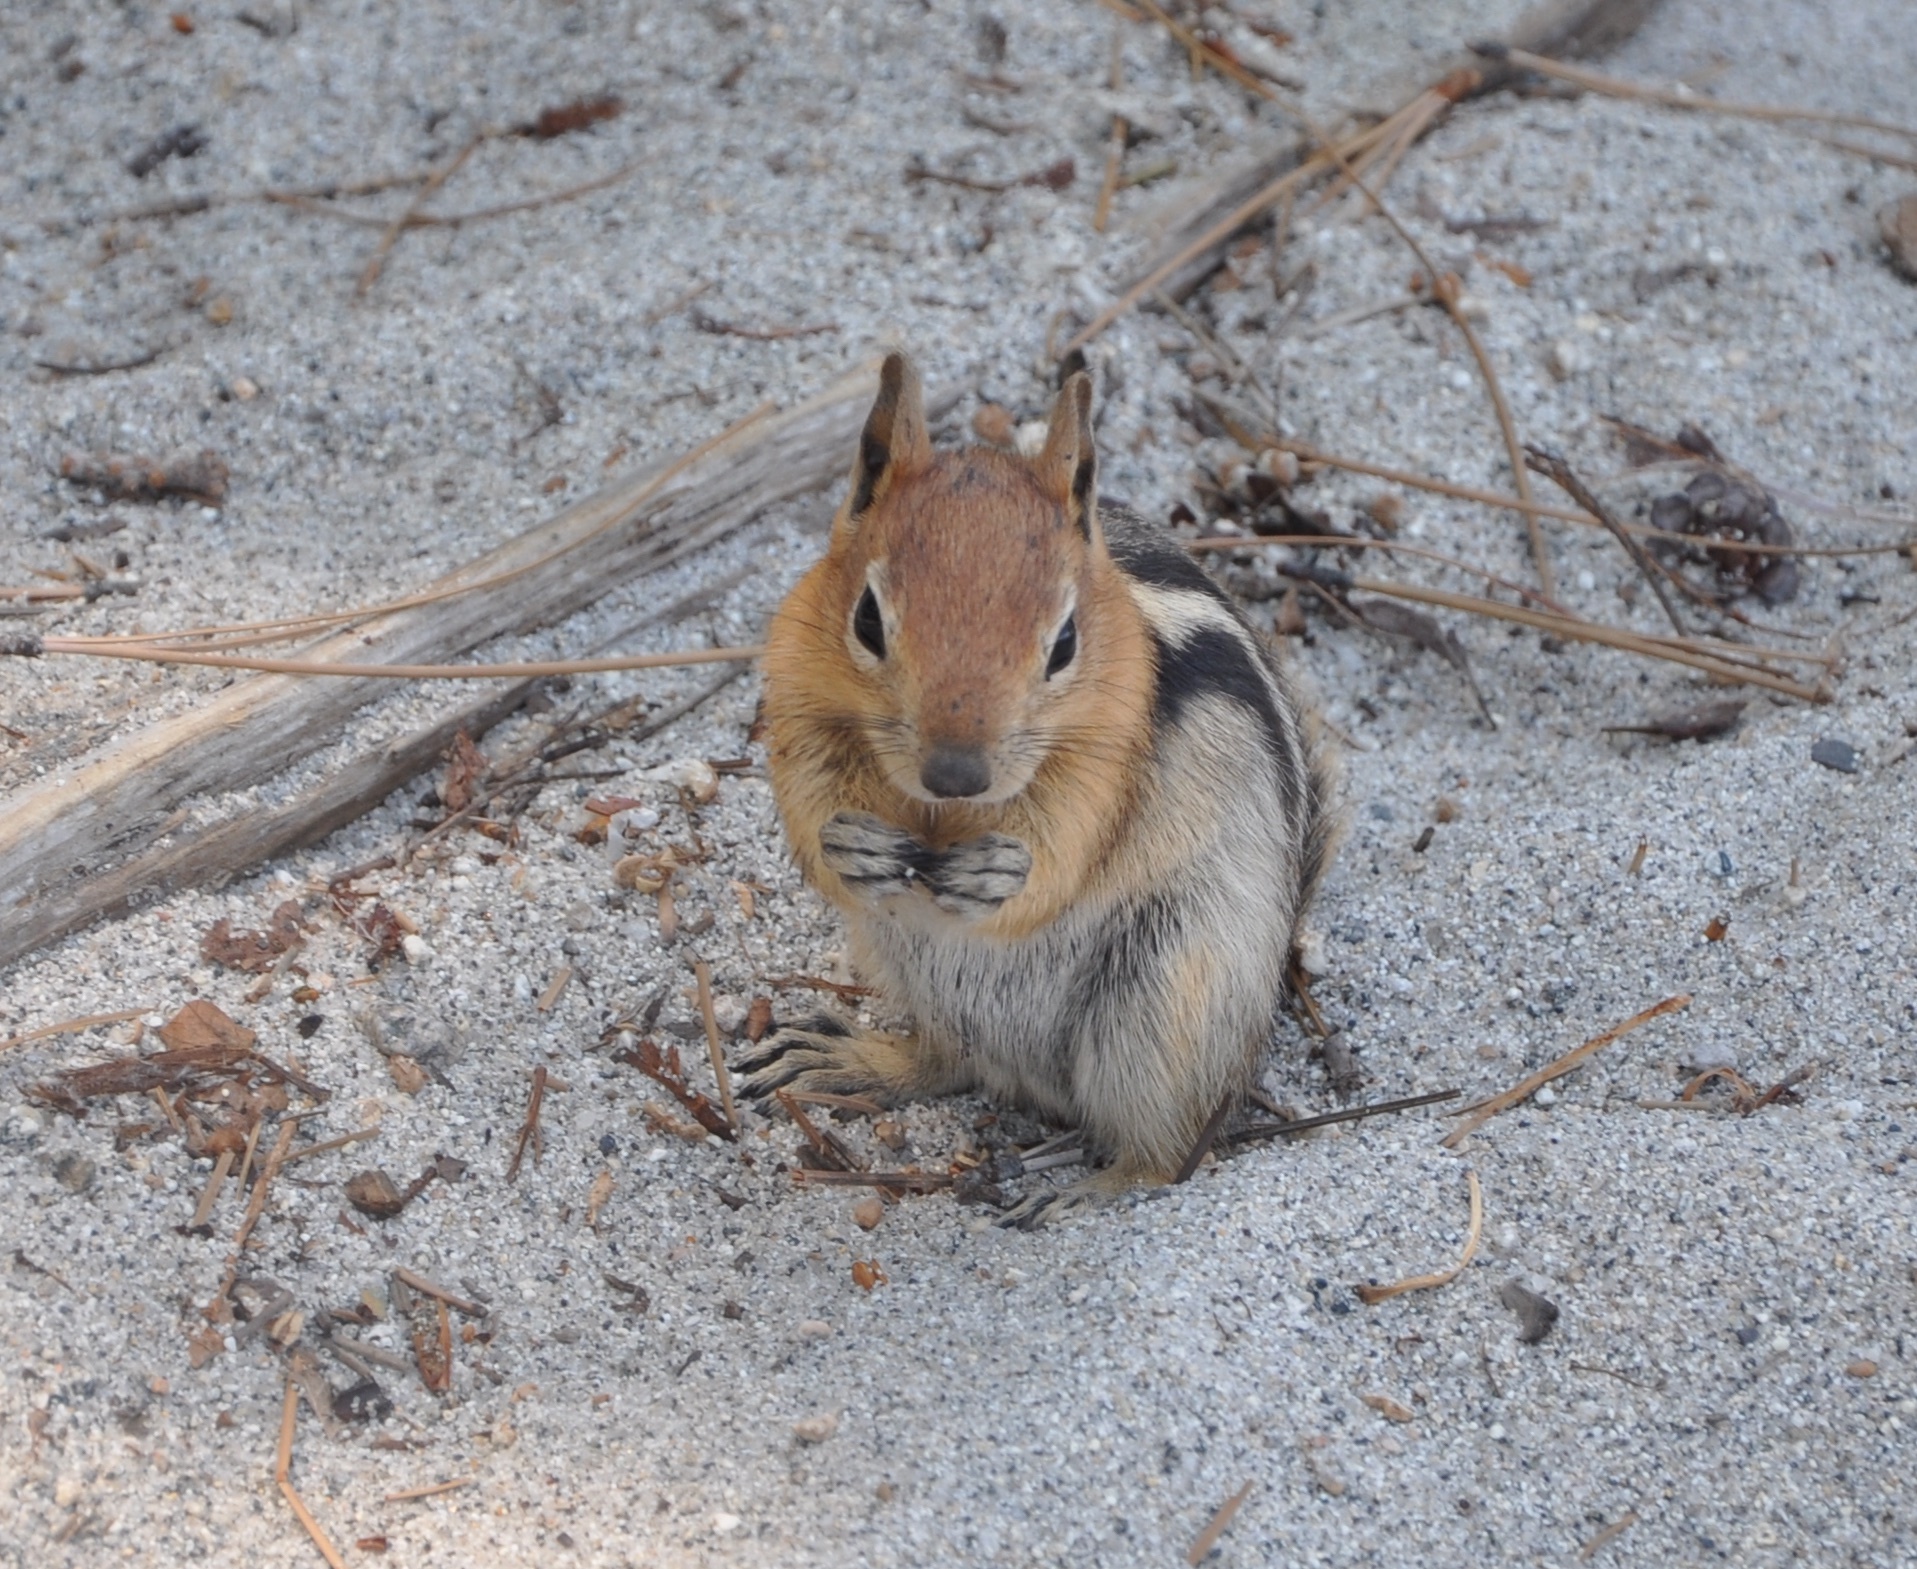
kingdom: Animalia
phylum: Chordata
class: Mammalia
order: Rodentia
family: Sciuridae
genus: Callospermophilus
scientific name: Callospermophilus lateralis
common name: Golden-mantled ground squirrel
